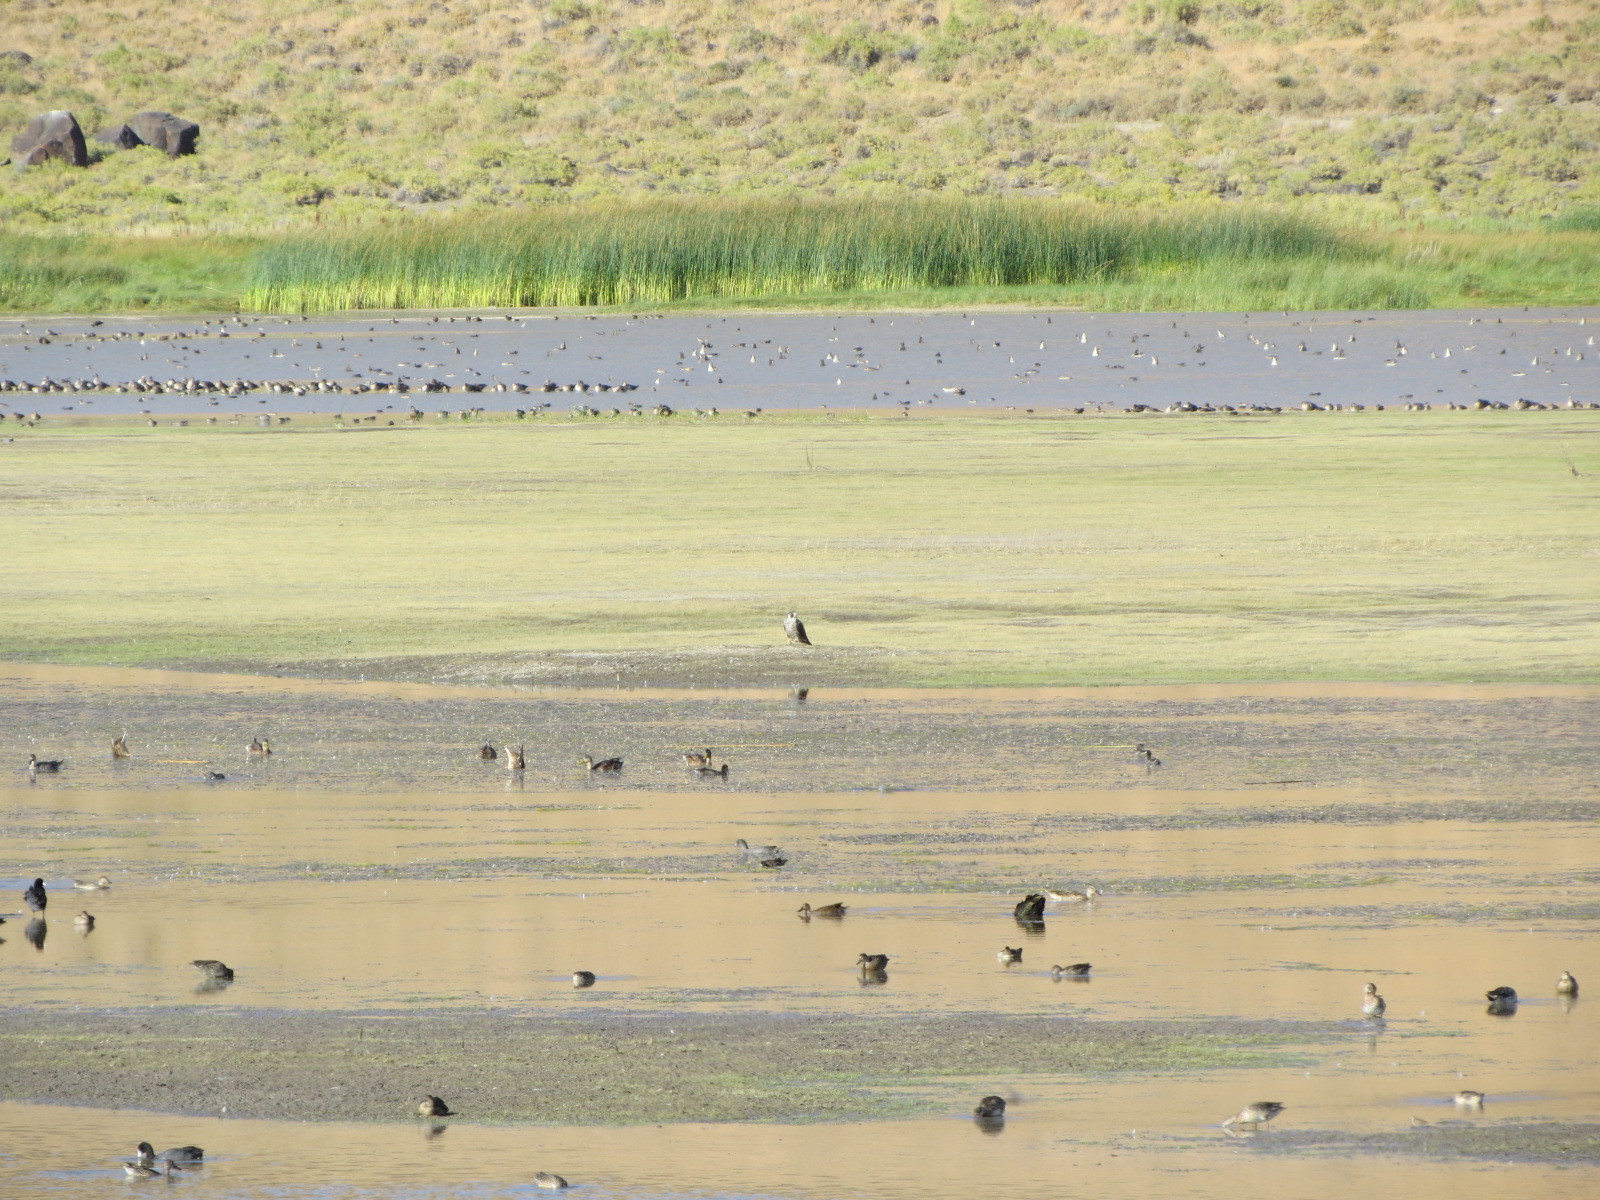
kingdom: Animalia
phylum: Chordata
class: Aves
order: Falconiformes
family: Falconidae
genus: Falco
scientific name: Falco peregrinus
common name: Peregrine falcon
